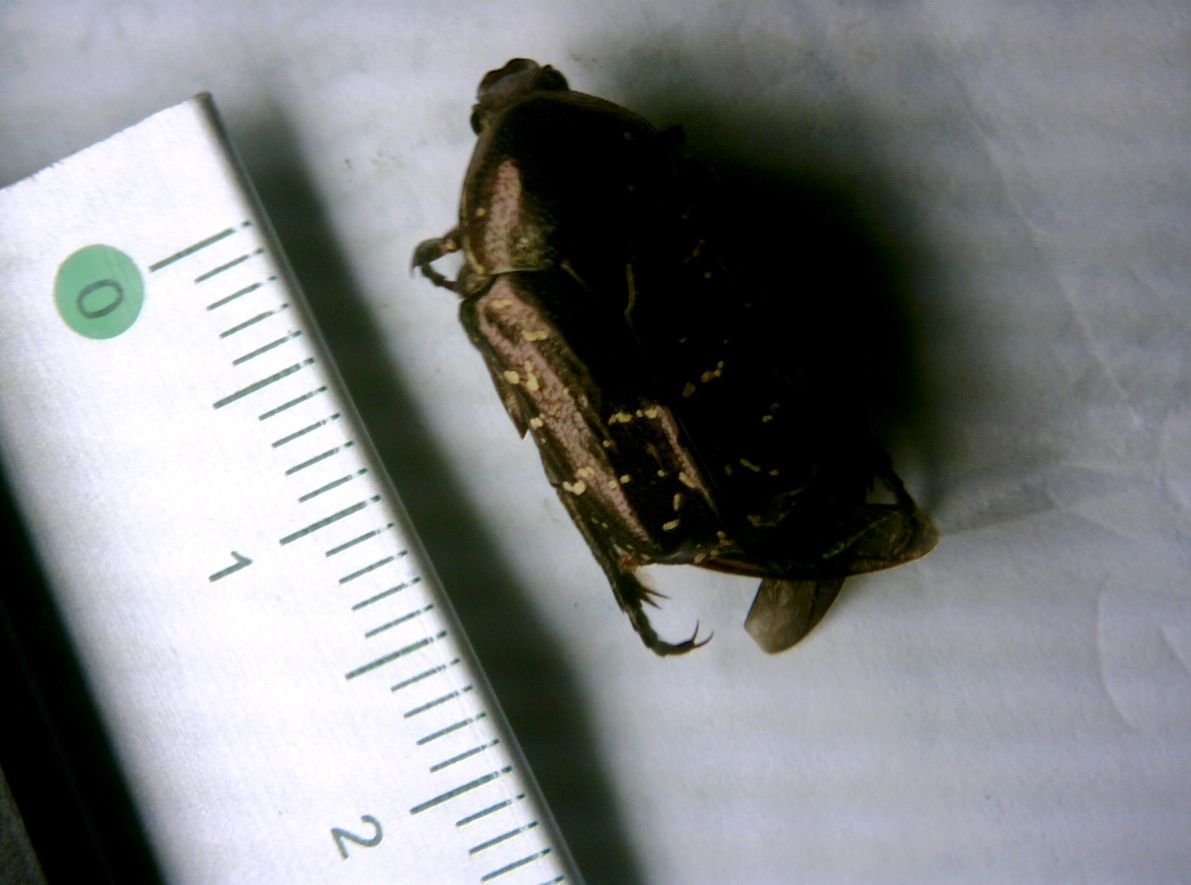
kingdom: Animalia
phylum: Arthropoda
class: Insecta
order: Coleoptera
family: Scarabaeidae
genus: Protaetia
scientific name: Protaetia orientalis
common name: Oriental flower beetle
